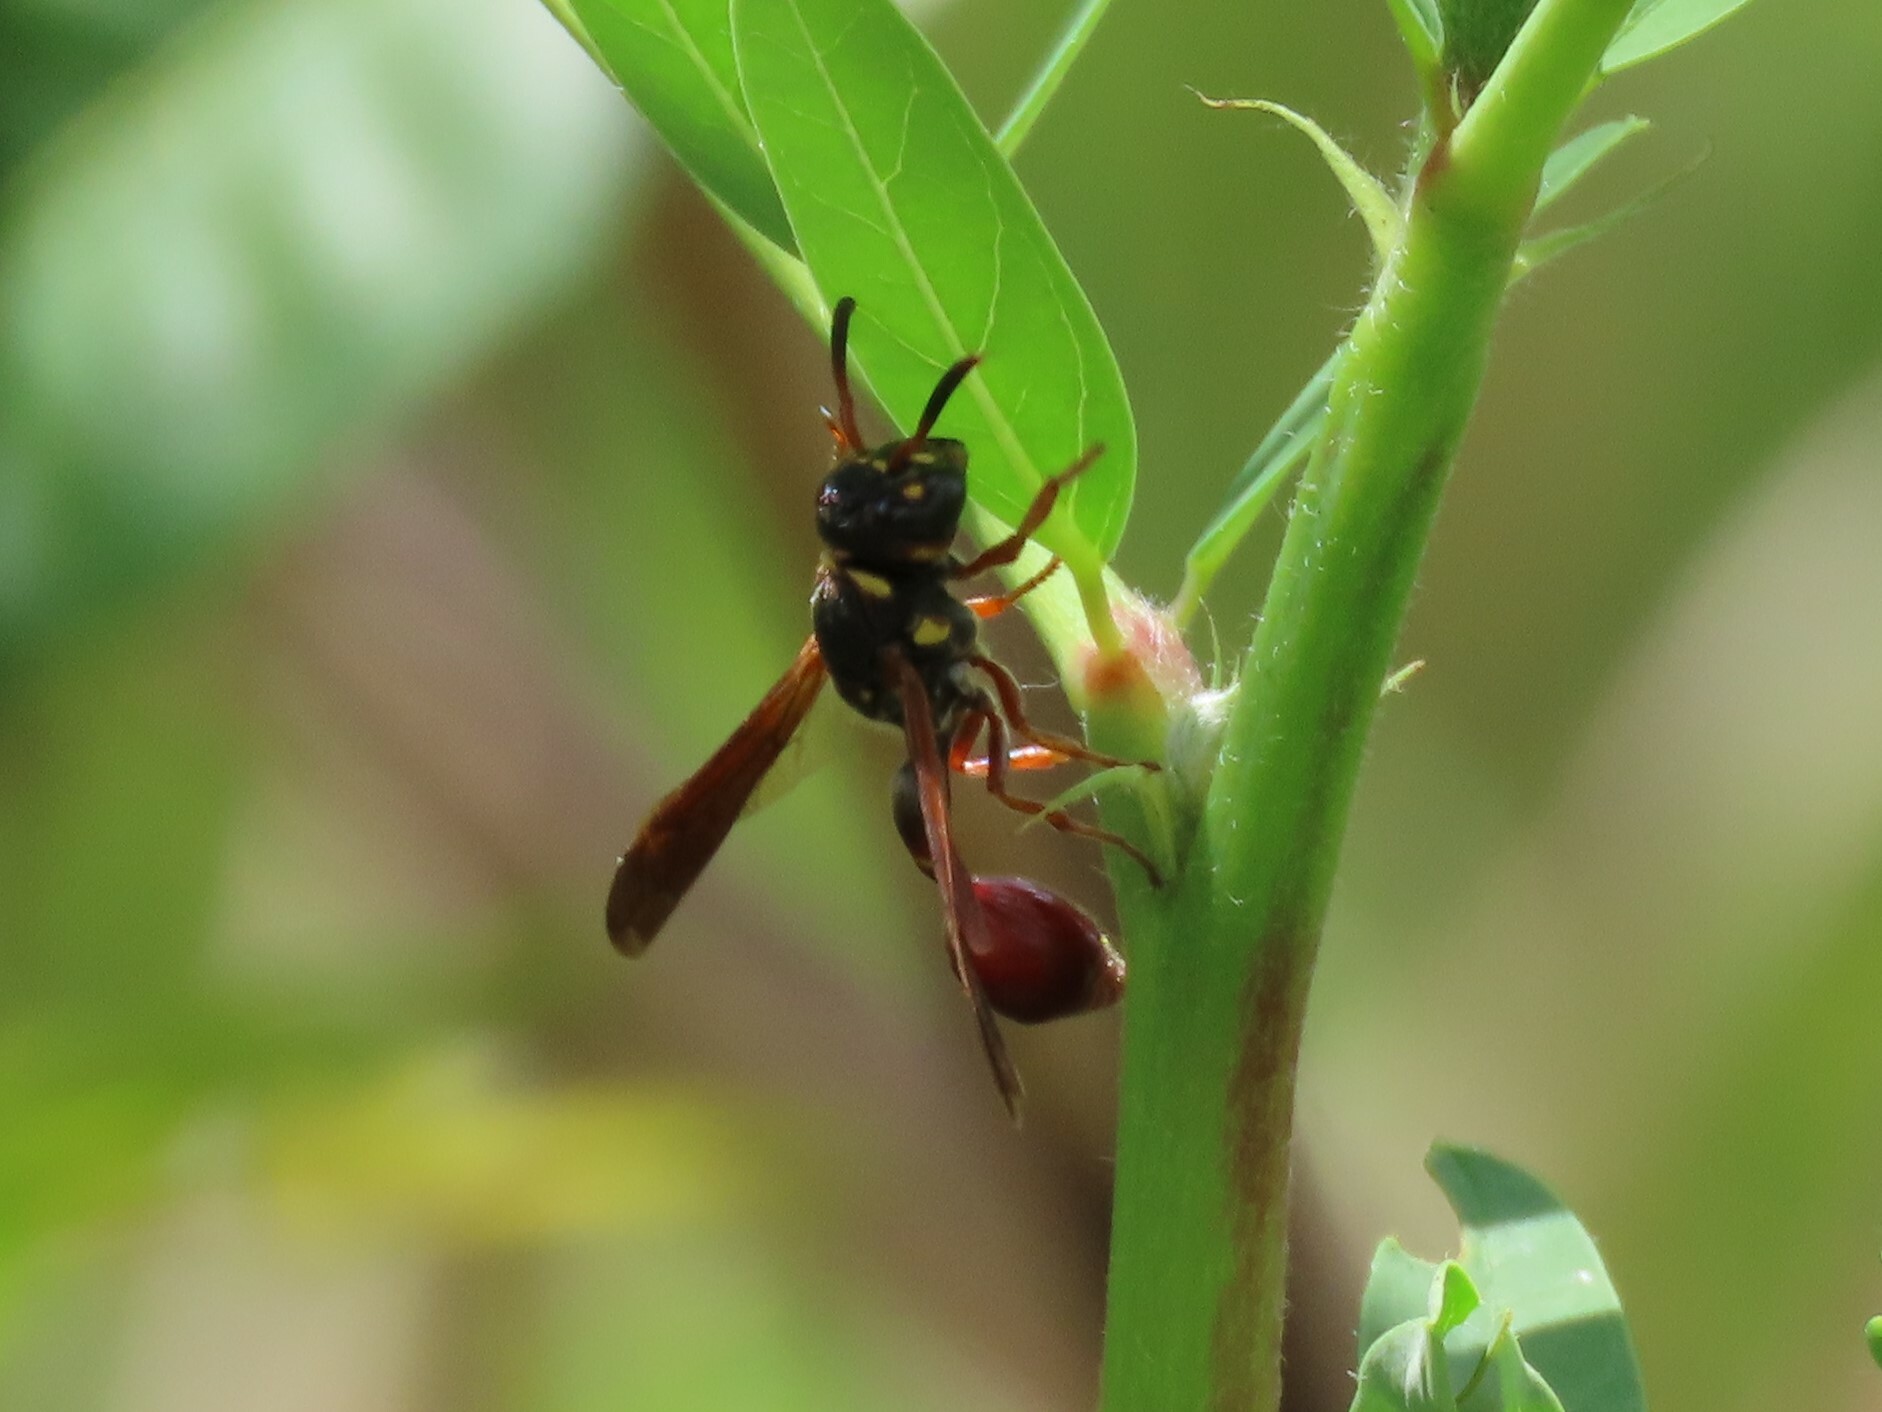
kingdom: Animalia
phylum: Arthropoda
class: Insecta
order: Hymenoptera
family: Eumenidae
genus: Zethus
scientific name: Zethus slossonae
